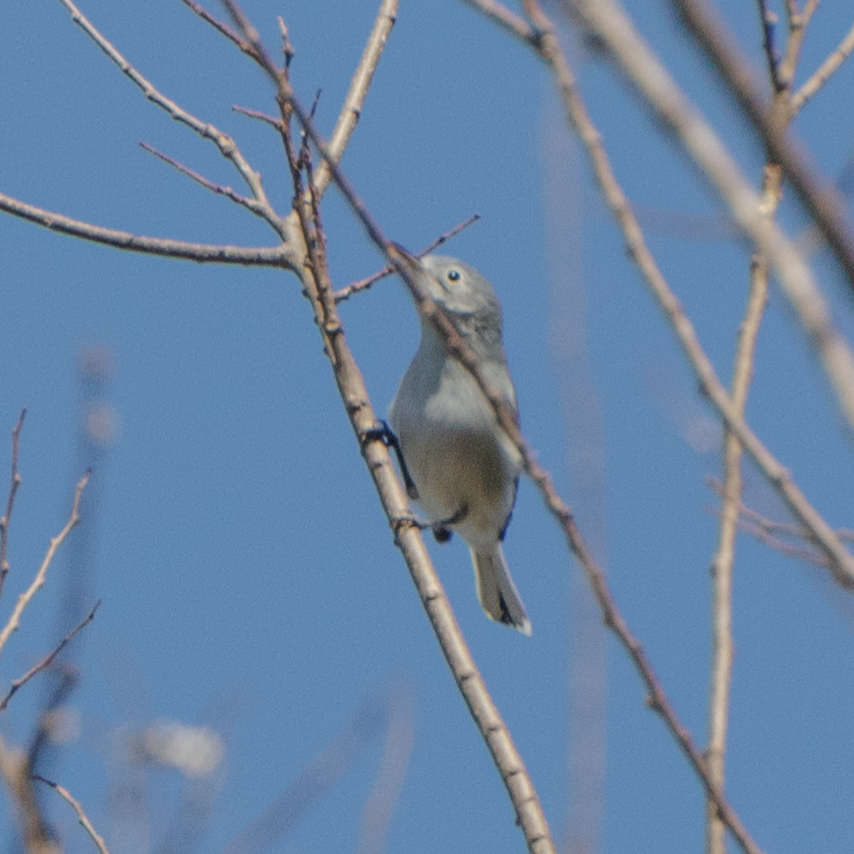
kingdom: Animalia
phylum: Chordata
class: Aves
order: Passeriformes
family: Polioptilidae
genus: Polioptila
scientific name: Polioptila caerulea
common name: Blue-gray gnatcatcher
